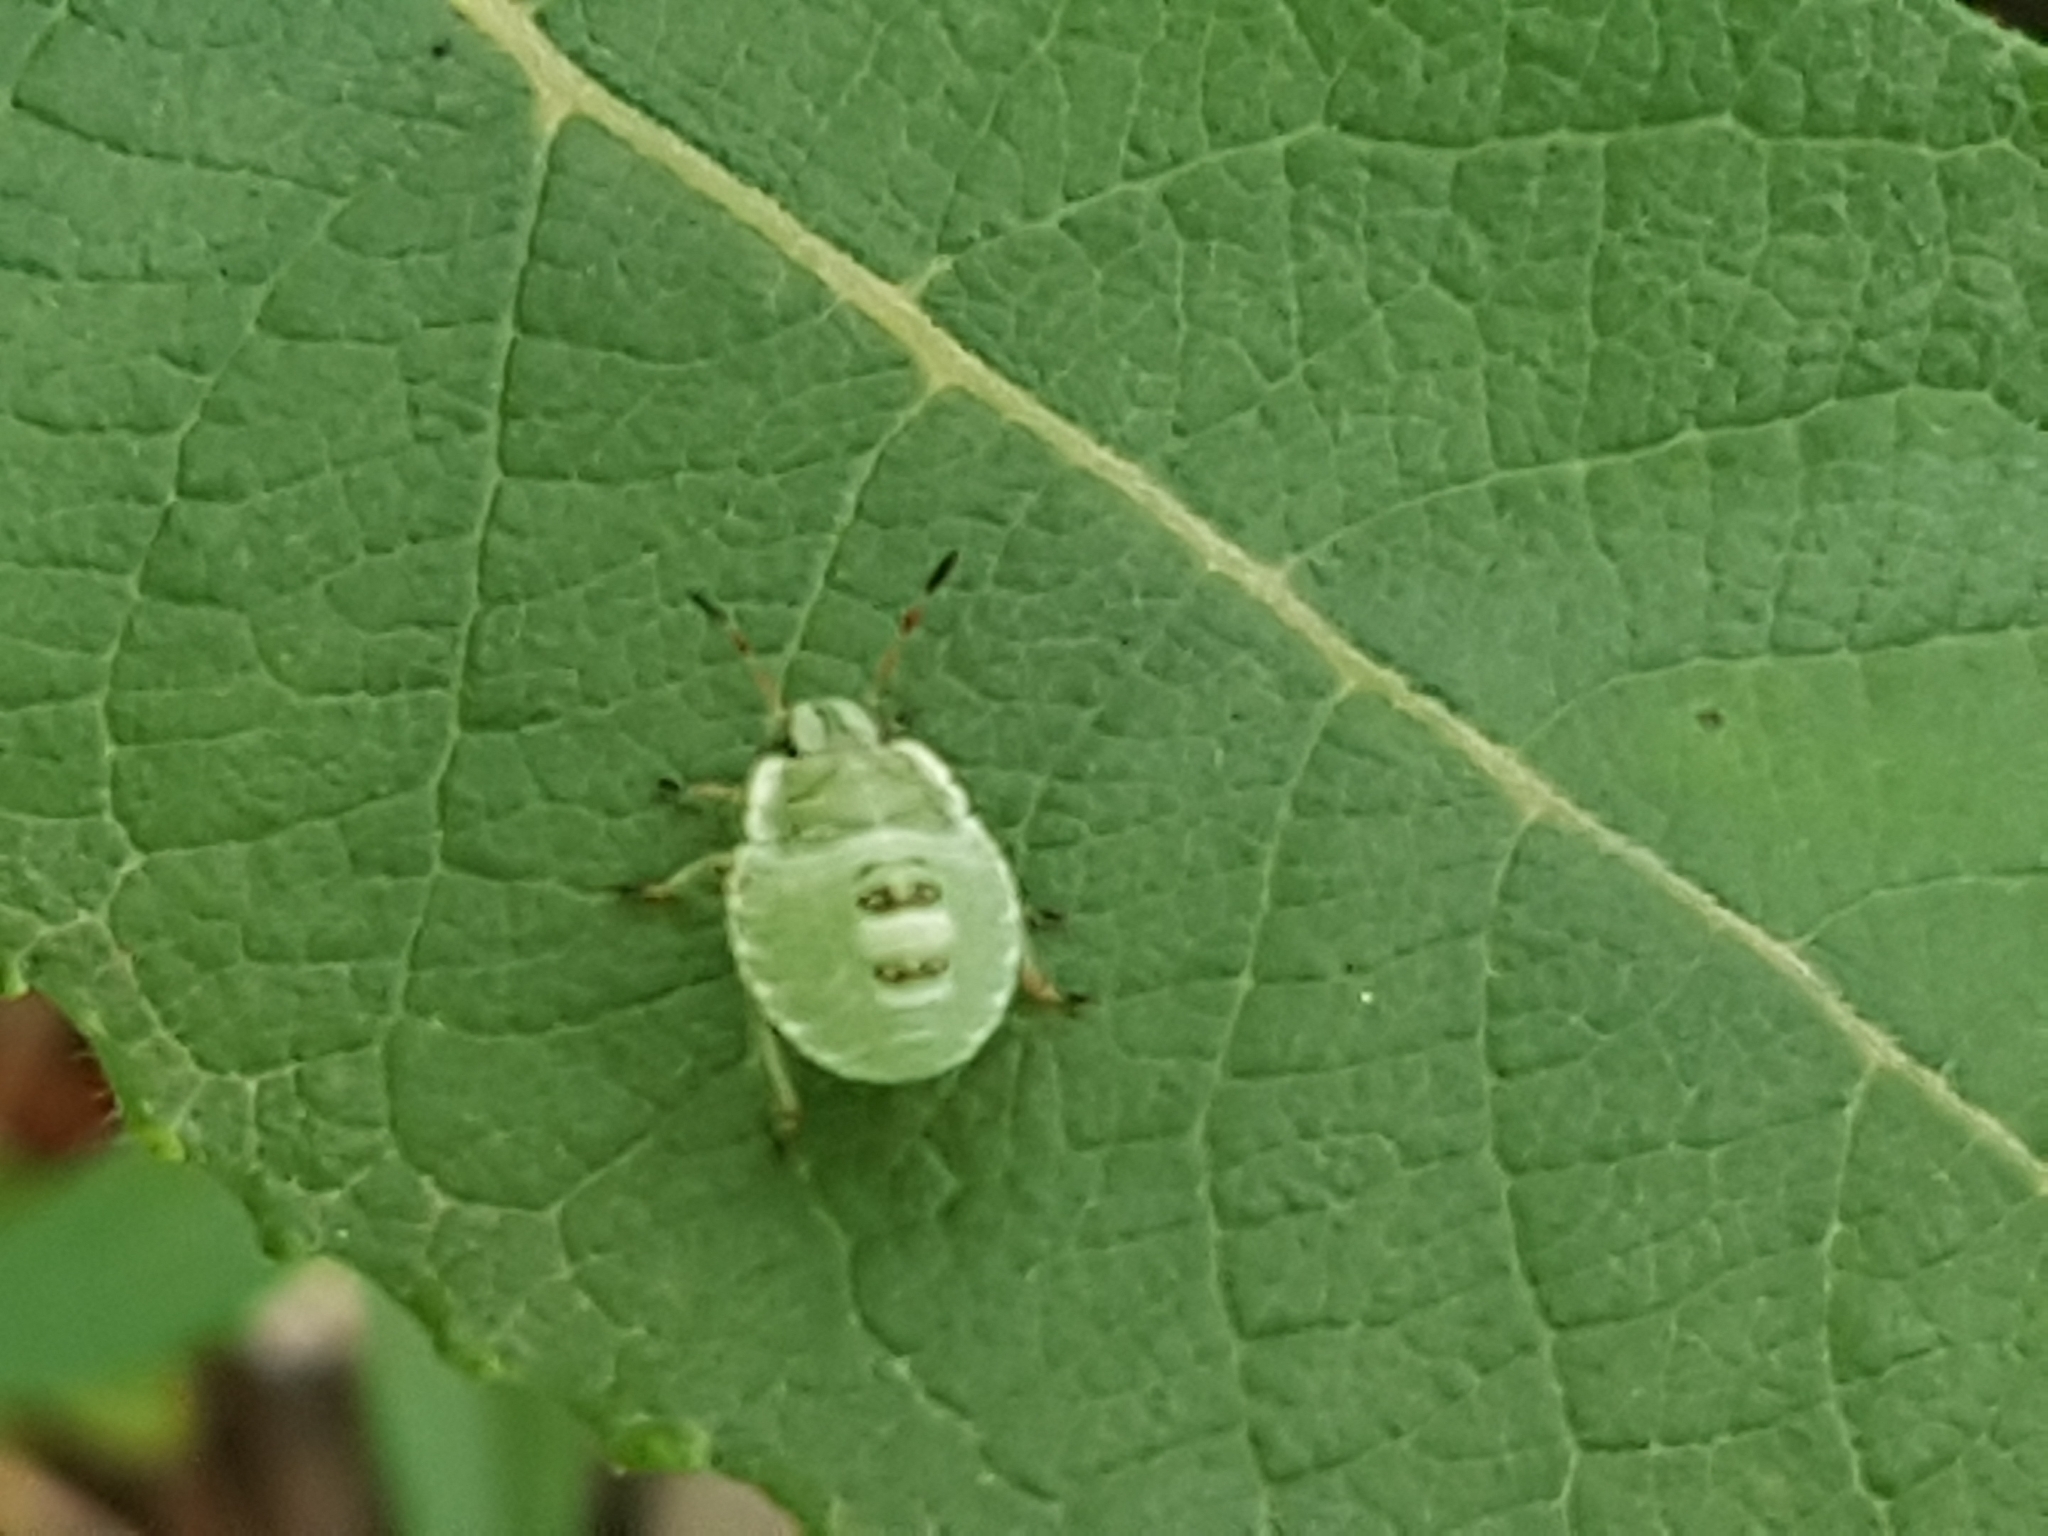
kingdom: Animalia
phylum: Arthropoda
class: Insecta
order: Hemiptera
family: Pentatomidae
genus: Palomena
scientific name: Palomena prasina
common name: Green shieldbug
